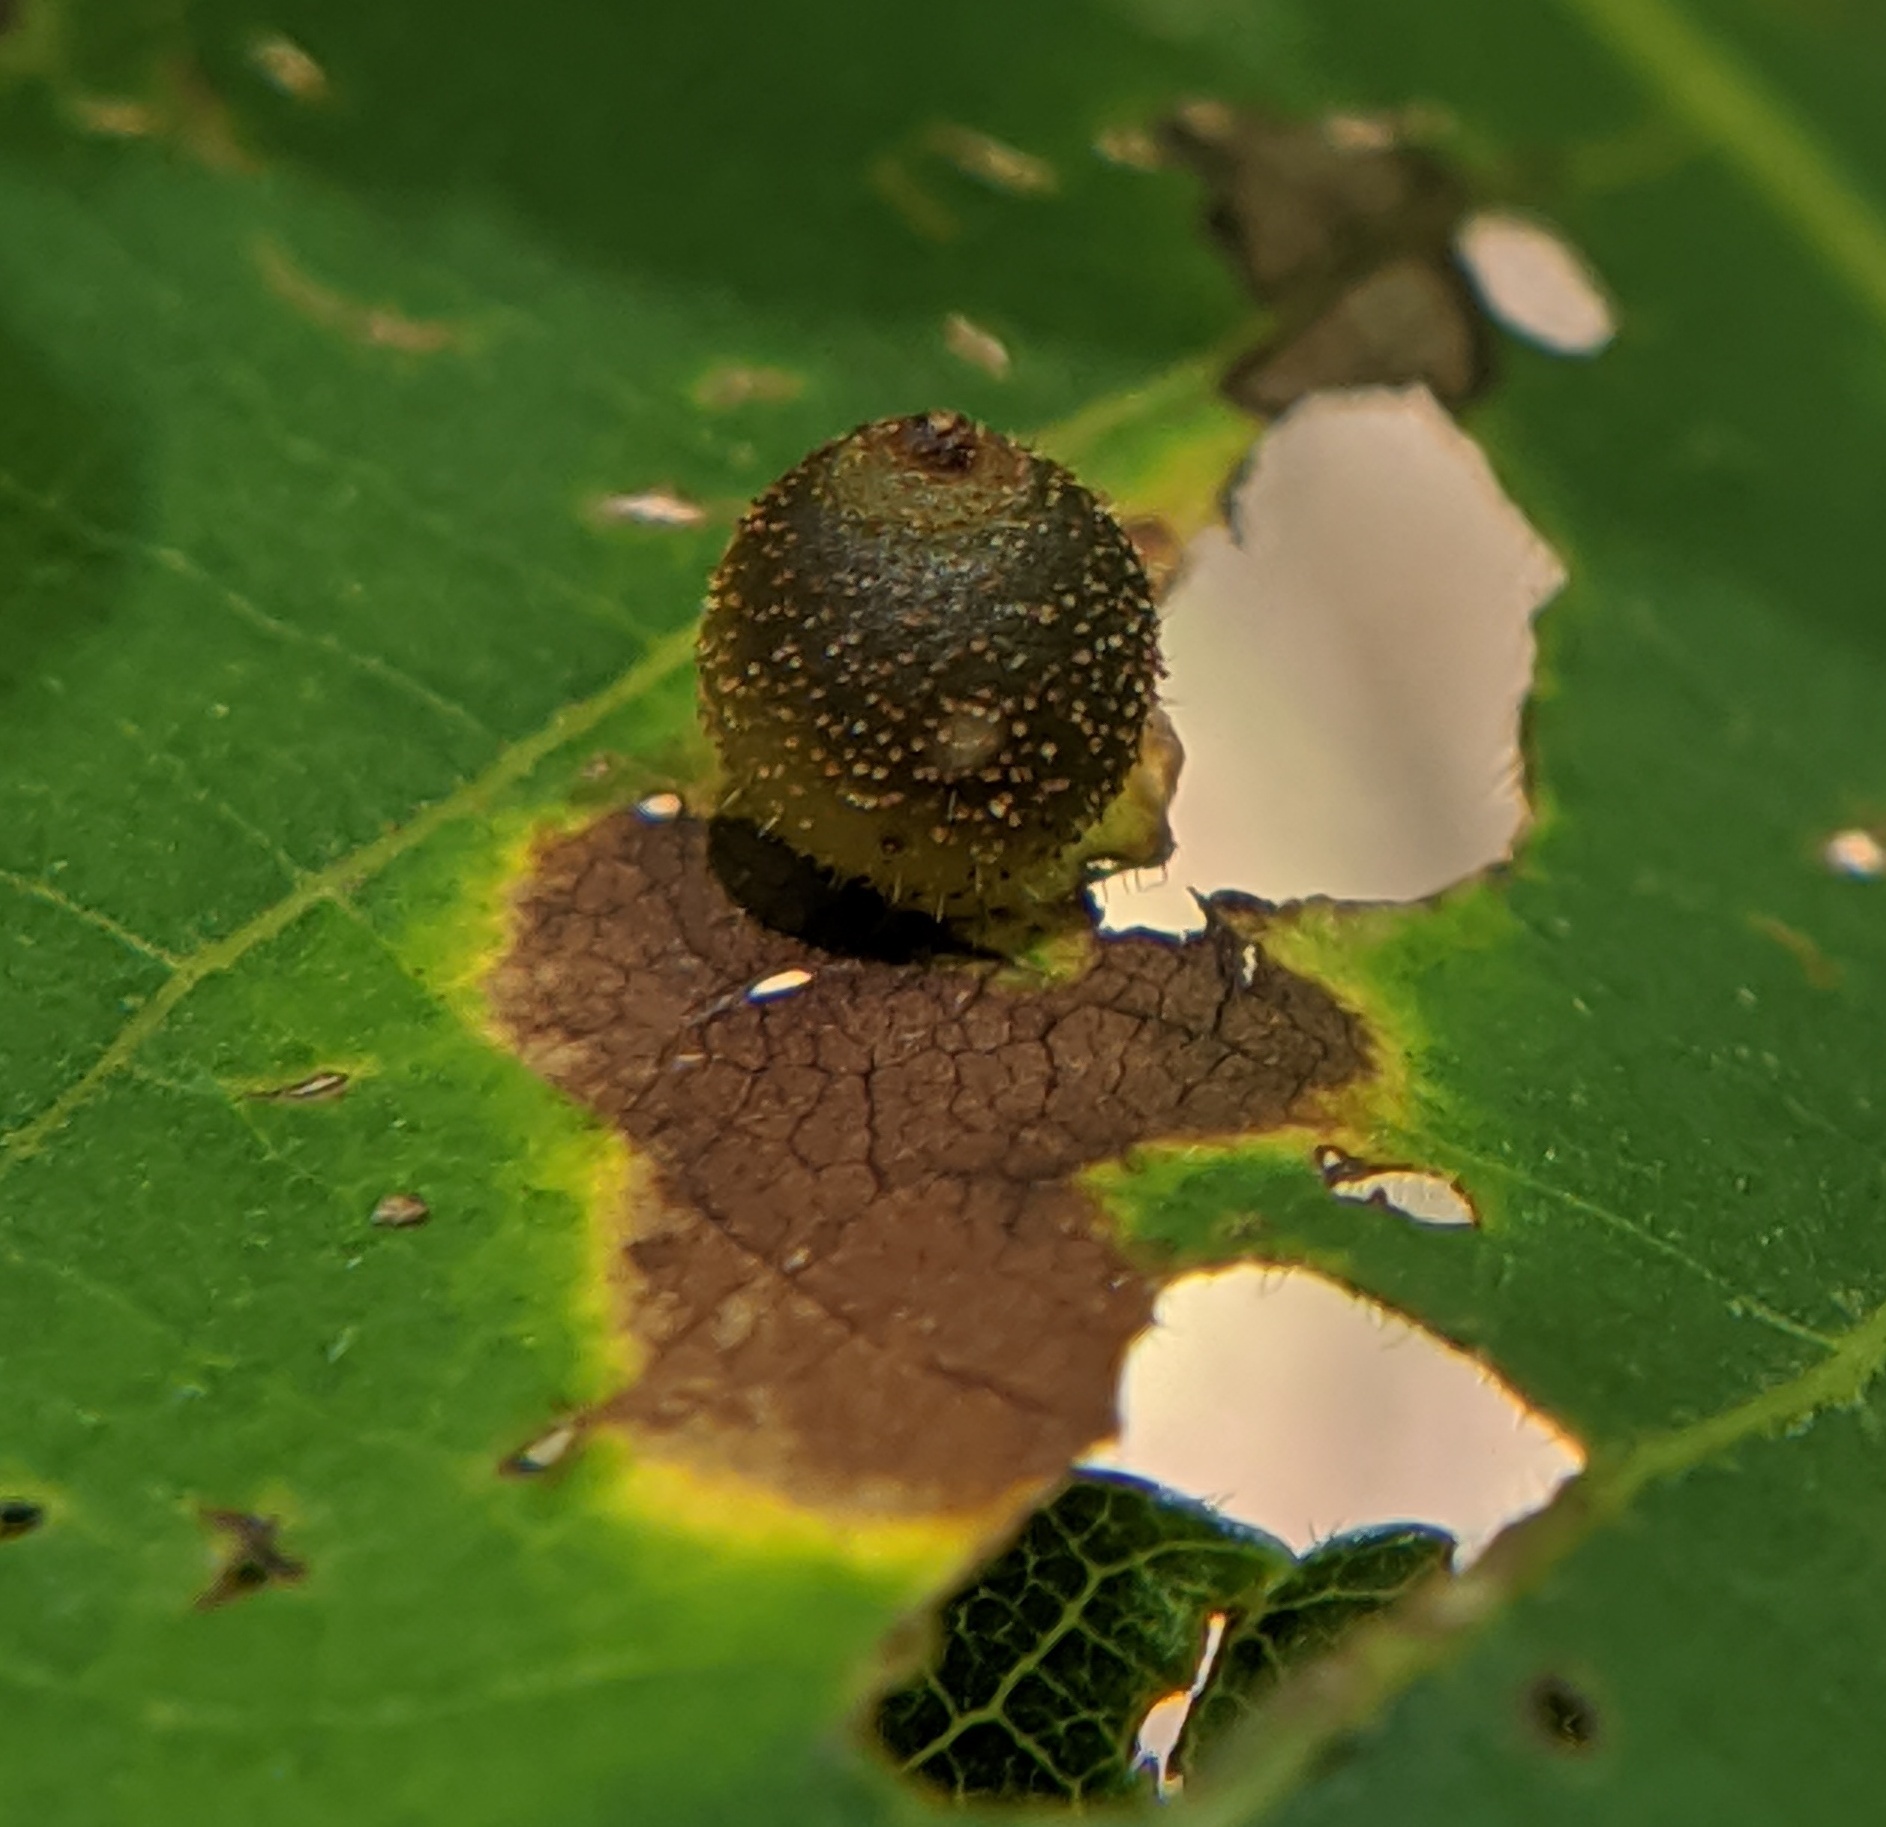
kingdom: Animalia
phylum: Arthropoda
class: Insecta
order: Diptera
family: Cecidomyiidae
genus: Caryomyia
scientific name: Caryomyia viscidolium
